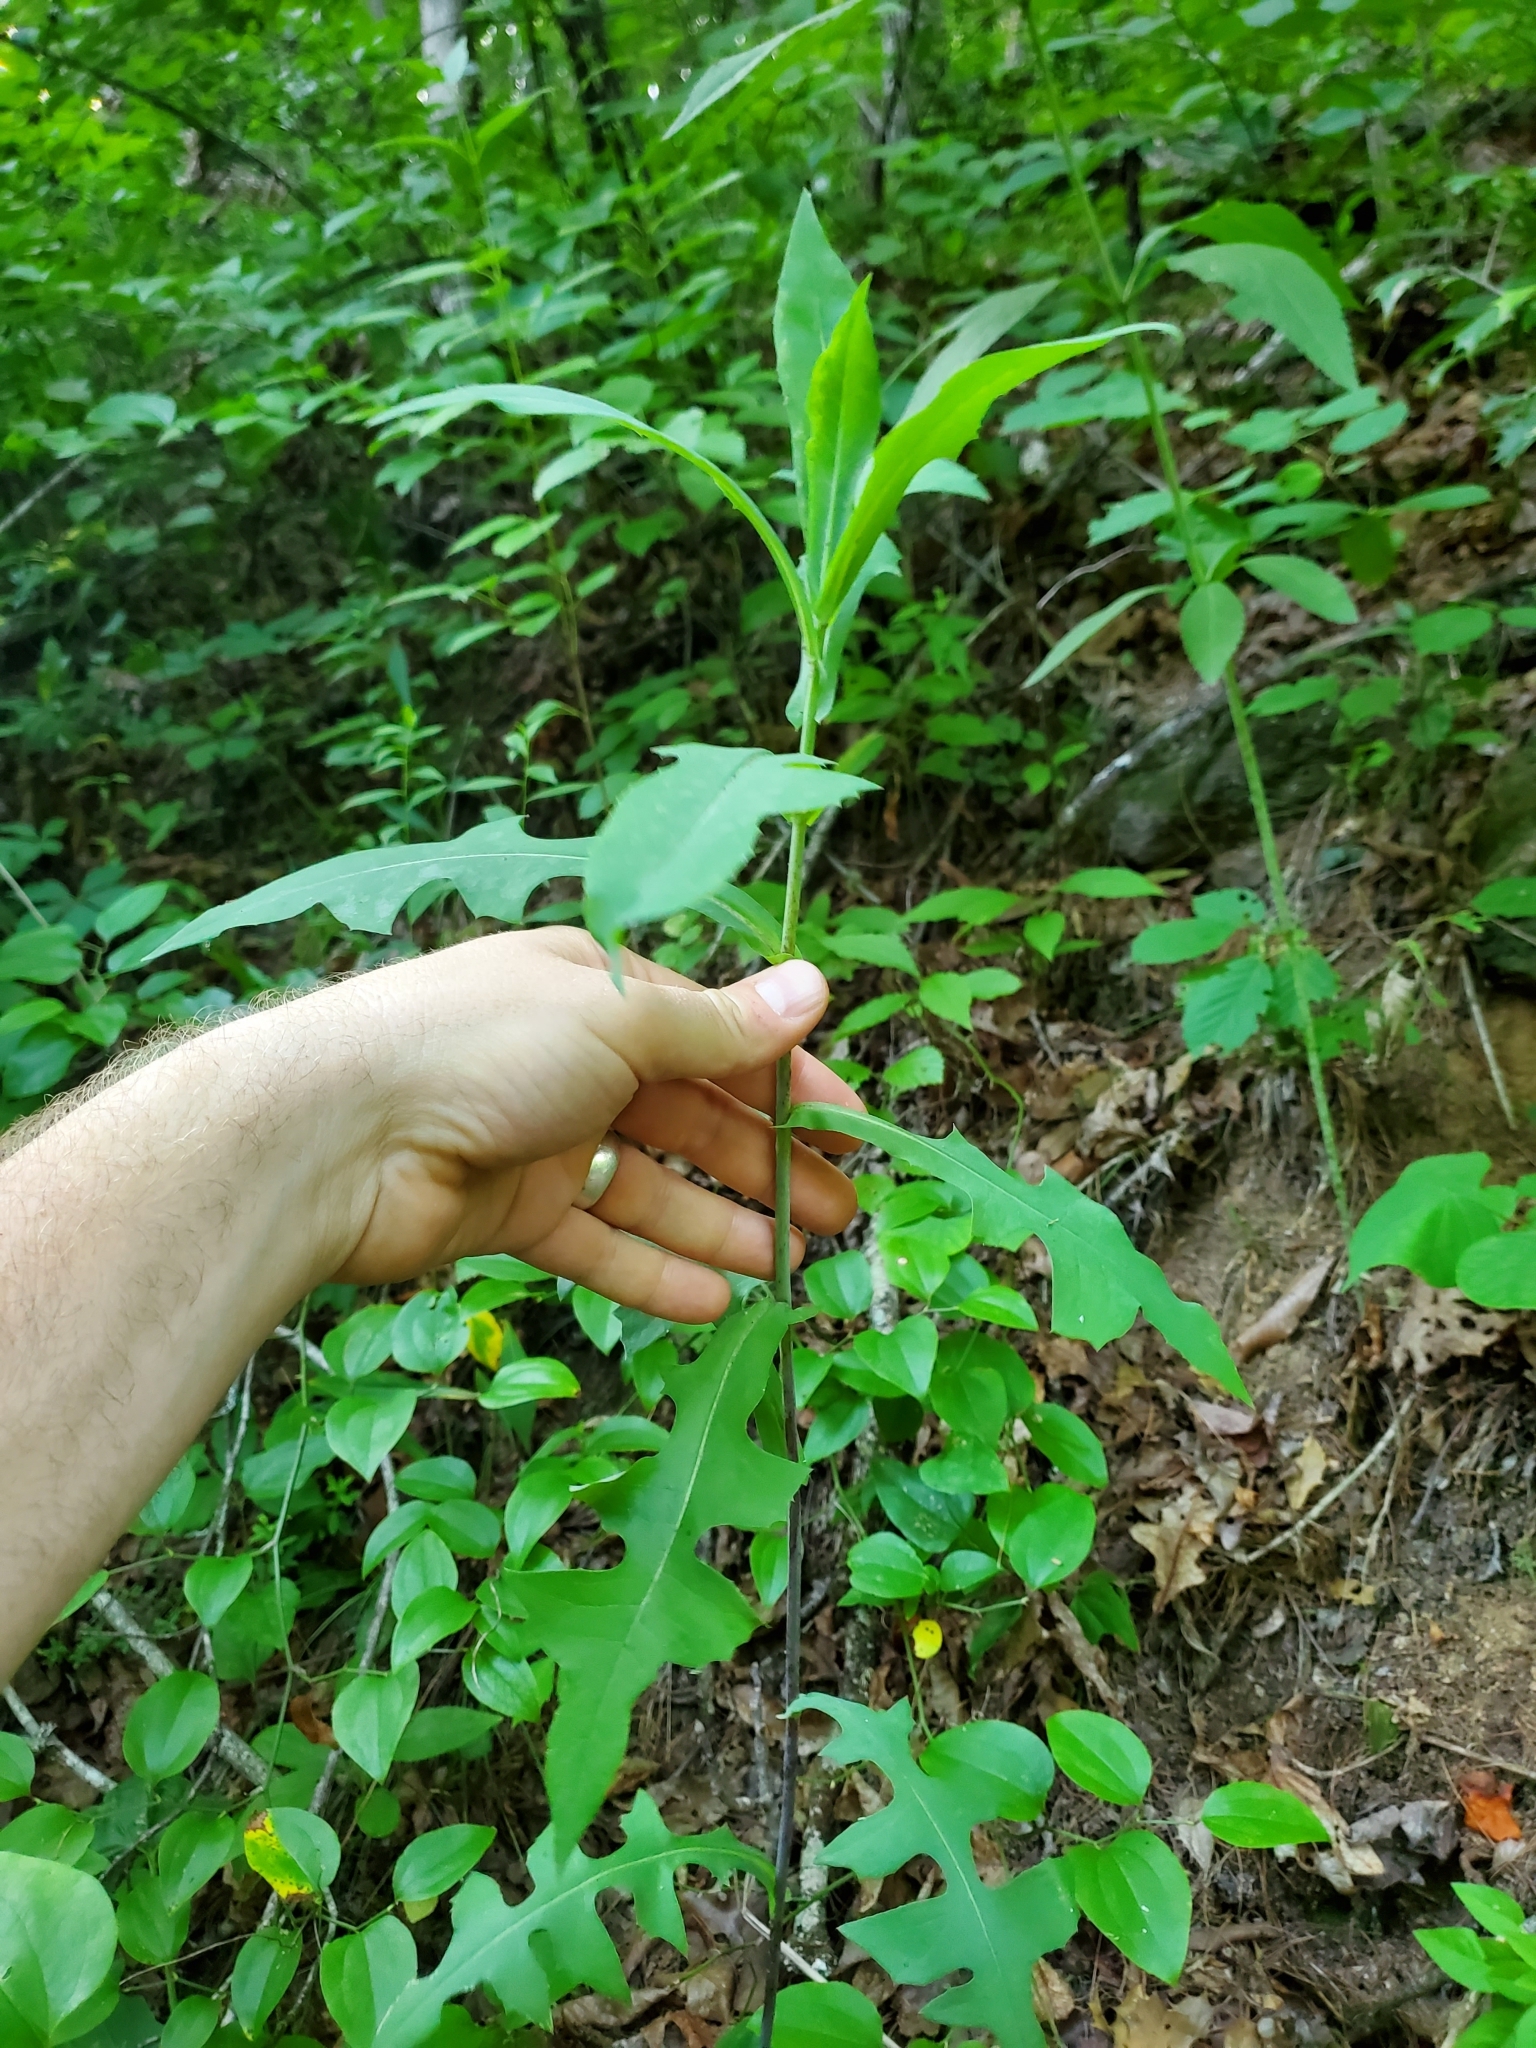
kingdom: Plantae
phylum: Tracheophyta
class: Magnoliopsida
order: Asterales
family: Asteraceae
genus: Lactuca
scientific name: Lactuca canadensis
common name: Canada lettuce
